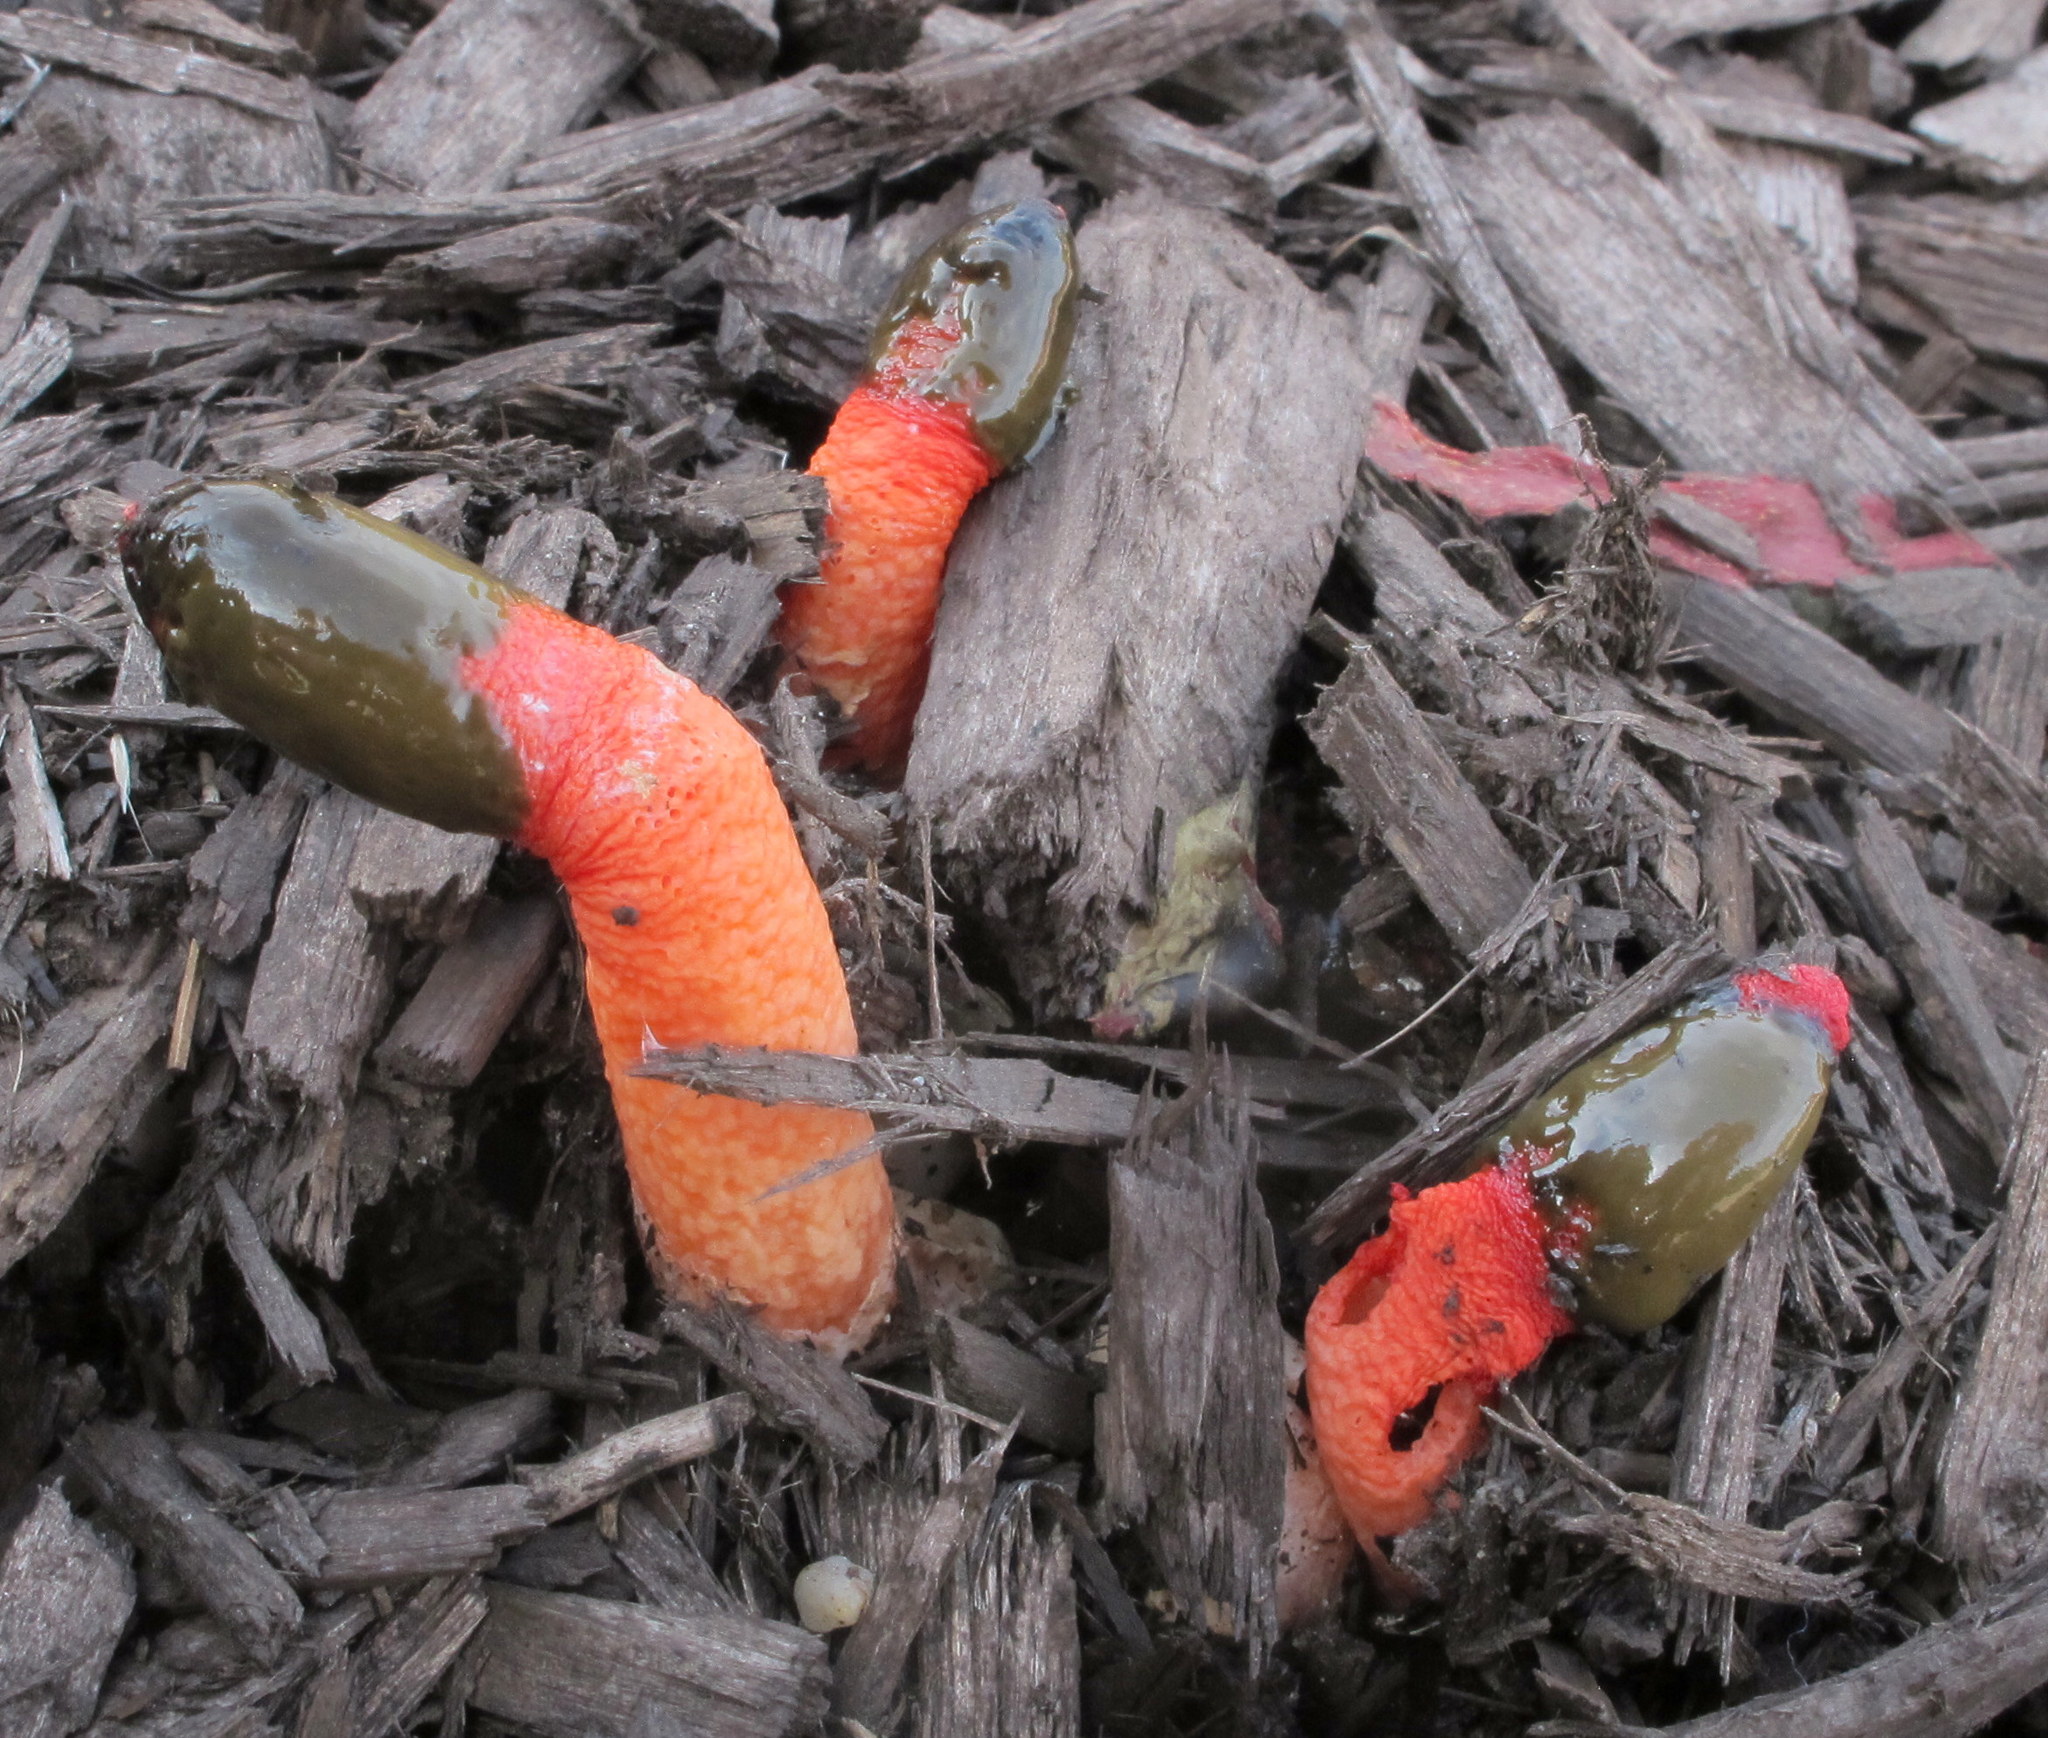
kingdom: Fungi
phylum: Basidiomycota
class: Agaricomycetes
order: Phallales
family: Phallaceae
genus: Mutinus
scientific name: Mutinus elegans
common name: Devil's dipstick
